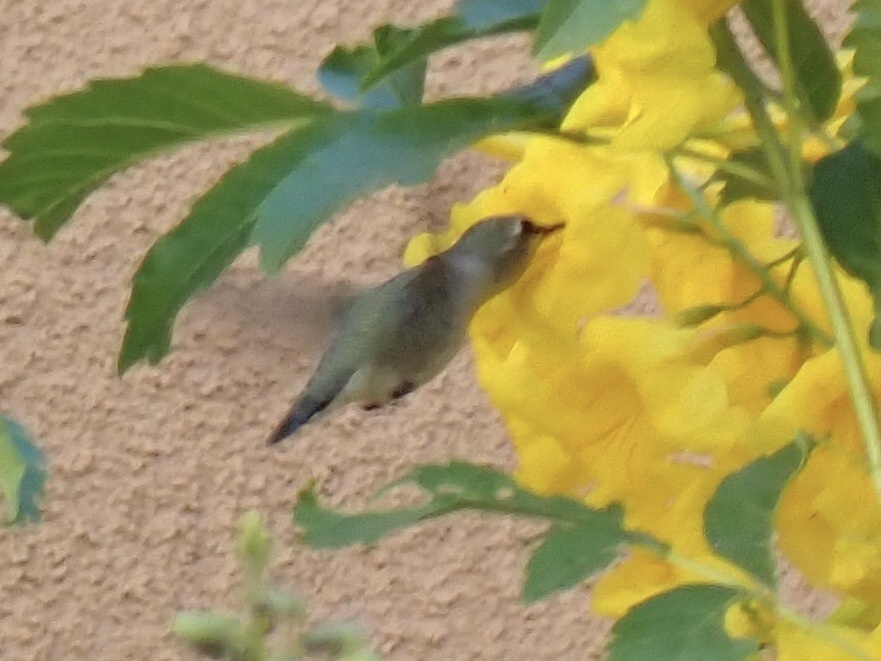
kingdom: Animalia
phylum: Chordata
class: Aves
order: Apodiformes
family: Trochilidae
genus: Calypte
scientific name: Calypte costae
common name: Costa's hummingbird
